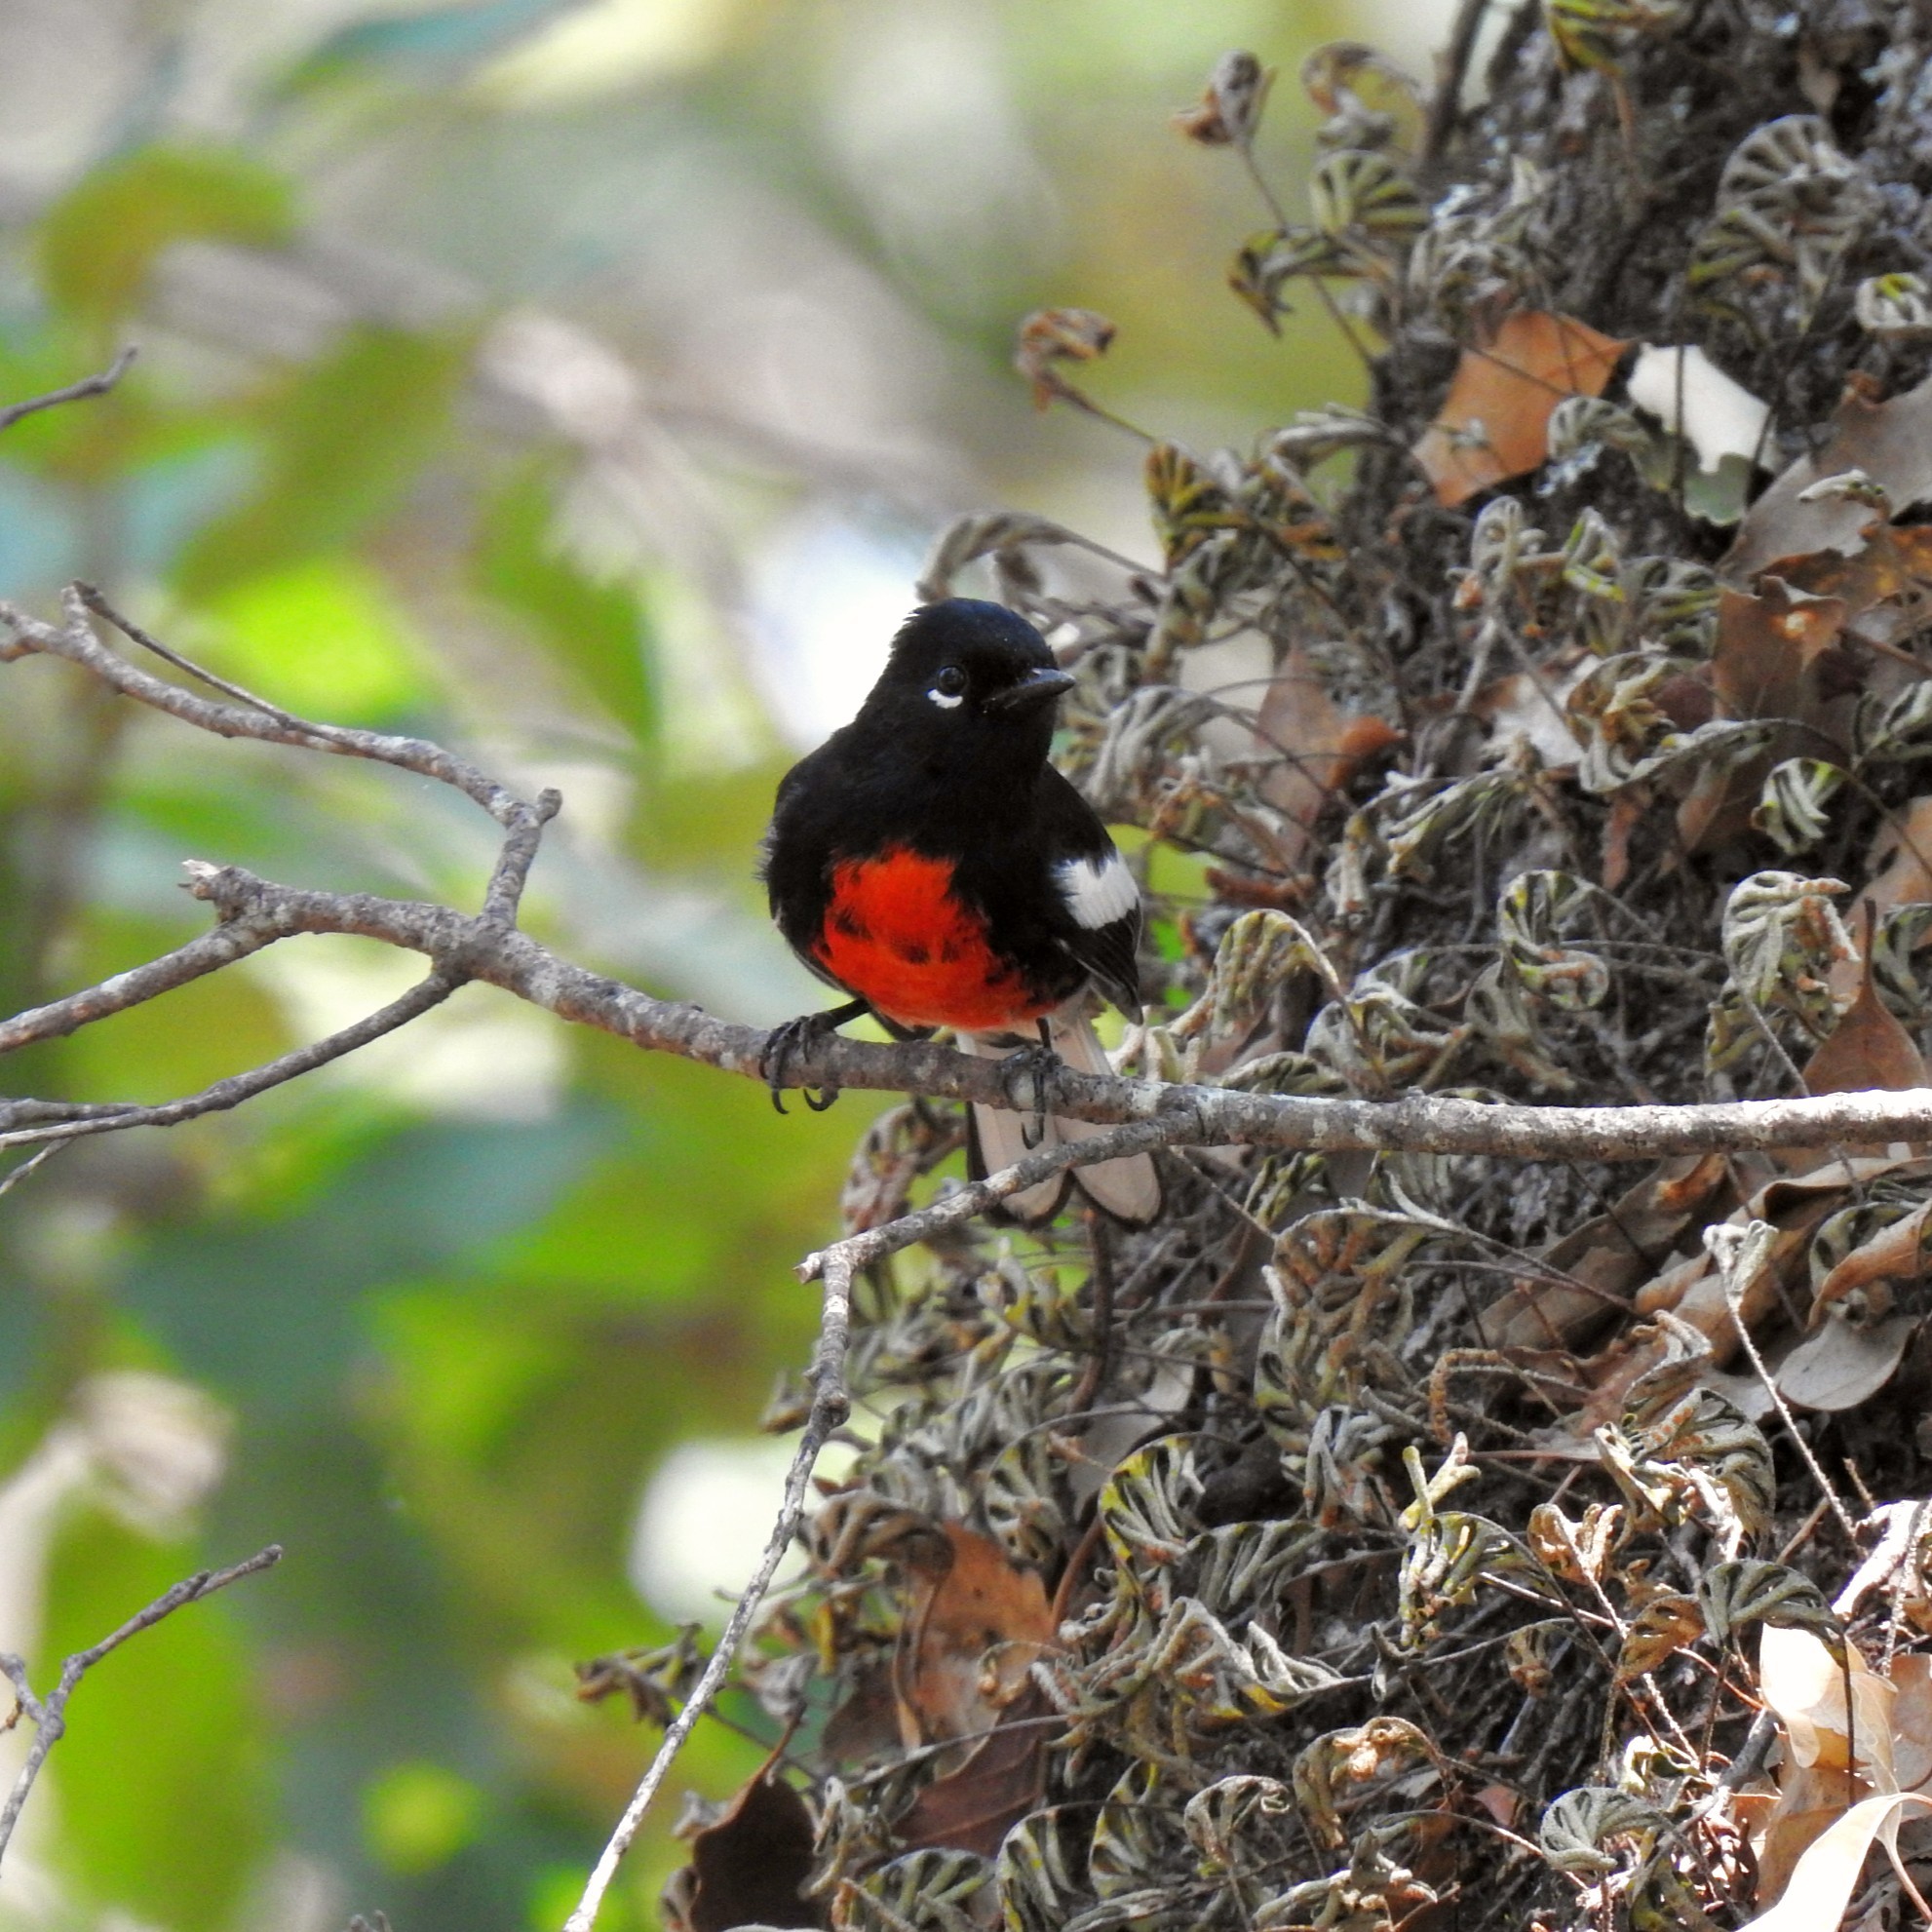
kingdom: Animalia
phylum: Chordata
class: Aves
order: Passeriformes
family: Parulidae
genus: Myioborus
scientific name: Myioborus pictus
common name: Painted whitestart
